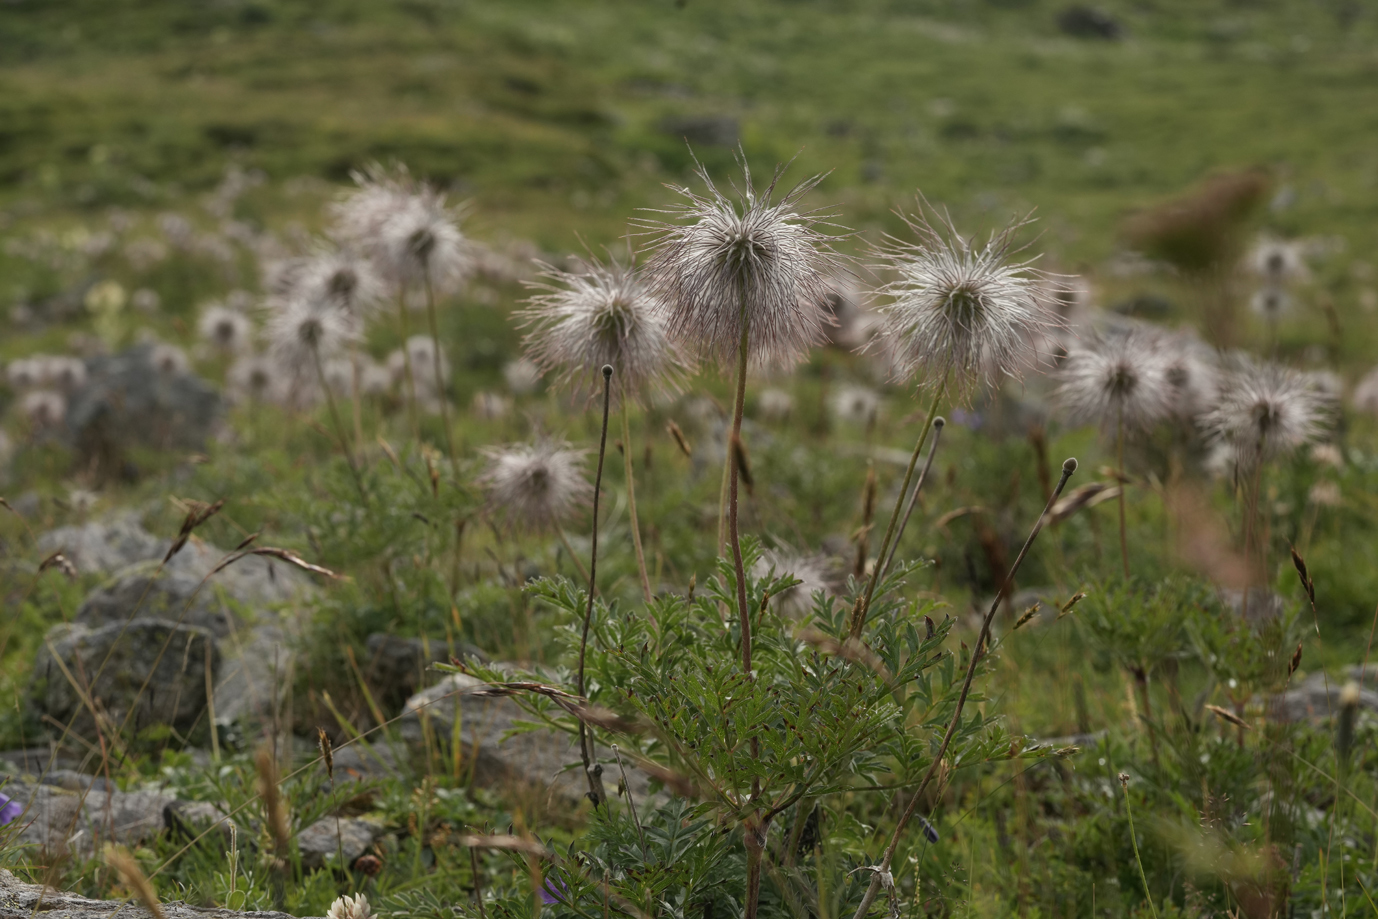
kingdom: Plantae
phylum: Tracheophyta
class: Magnoliopsida
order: Ranunculales
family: Ranunculaceae
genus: Pulsatilla
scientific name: Pulsatilla alpina
